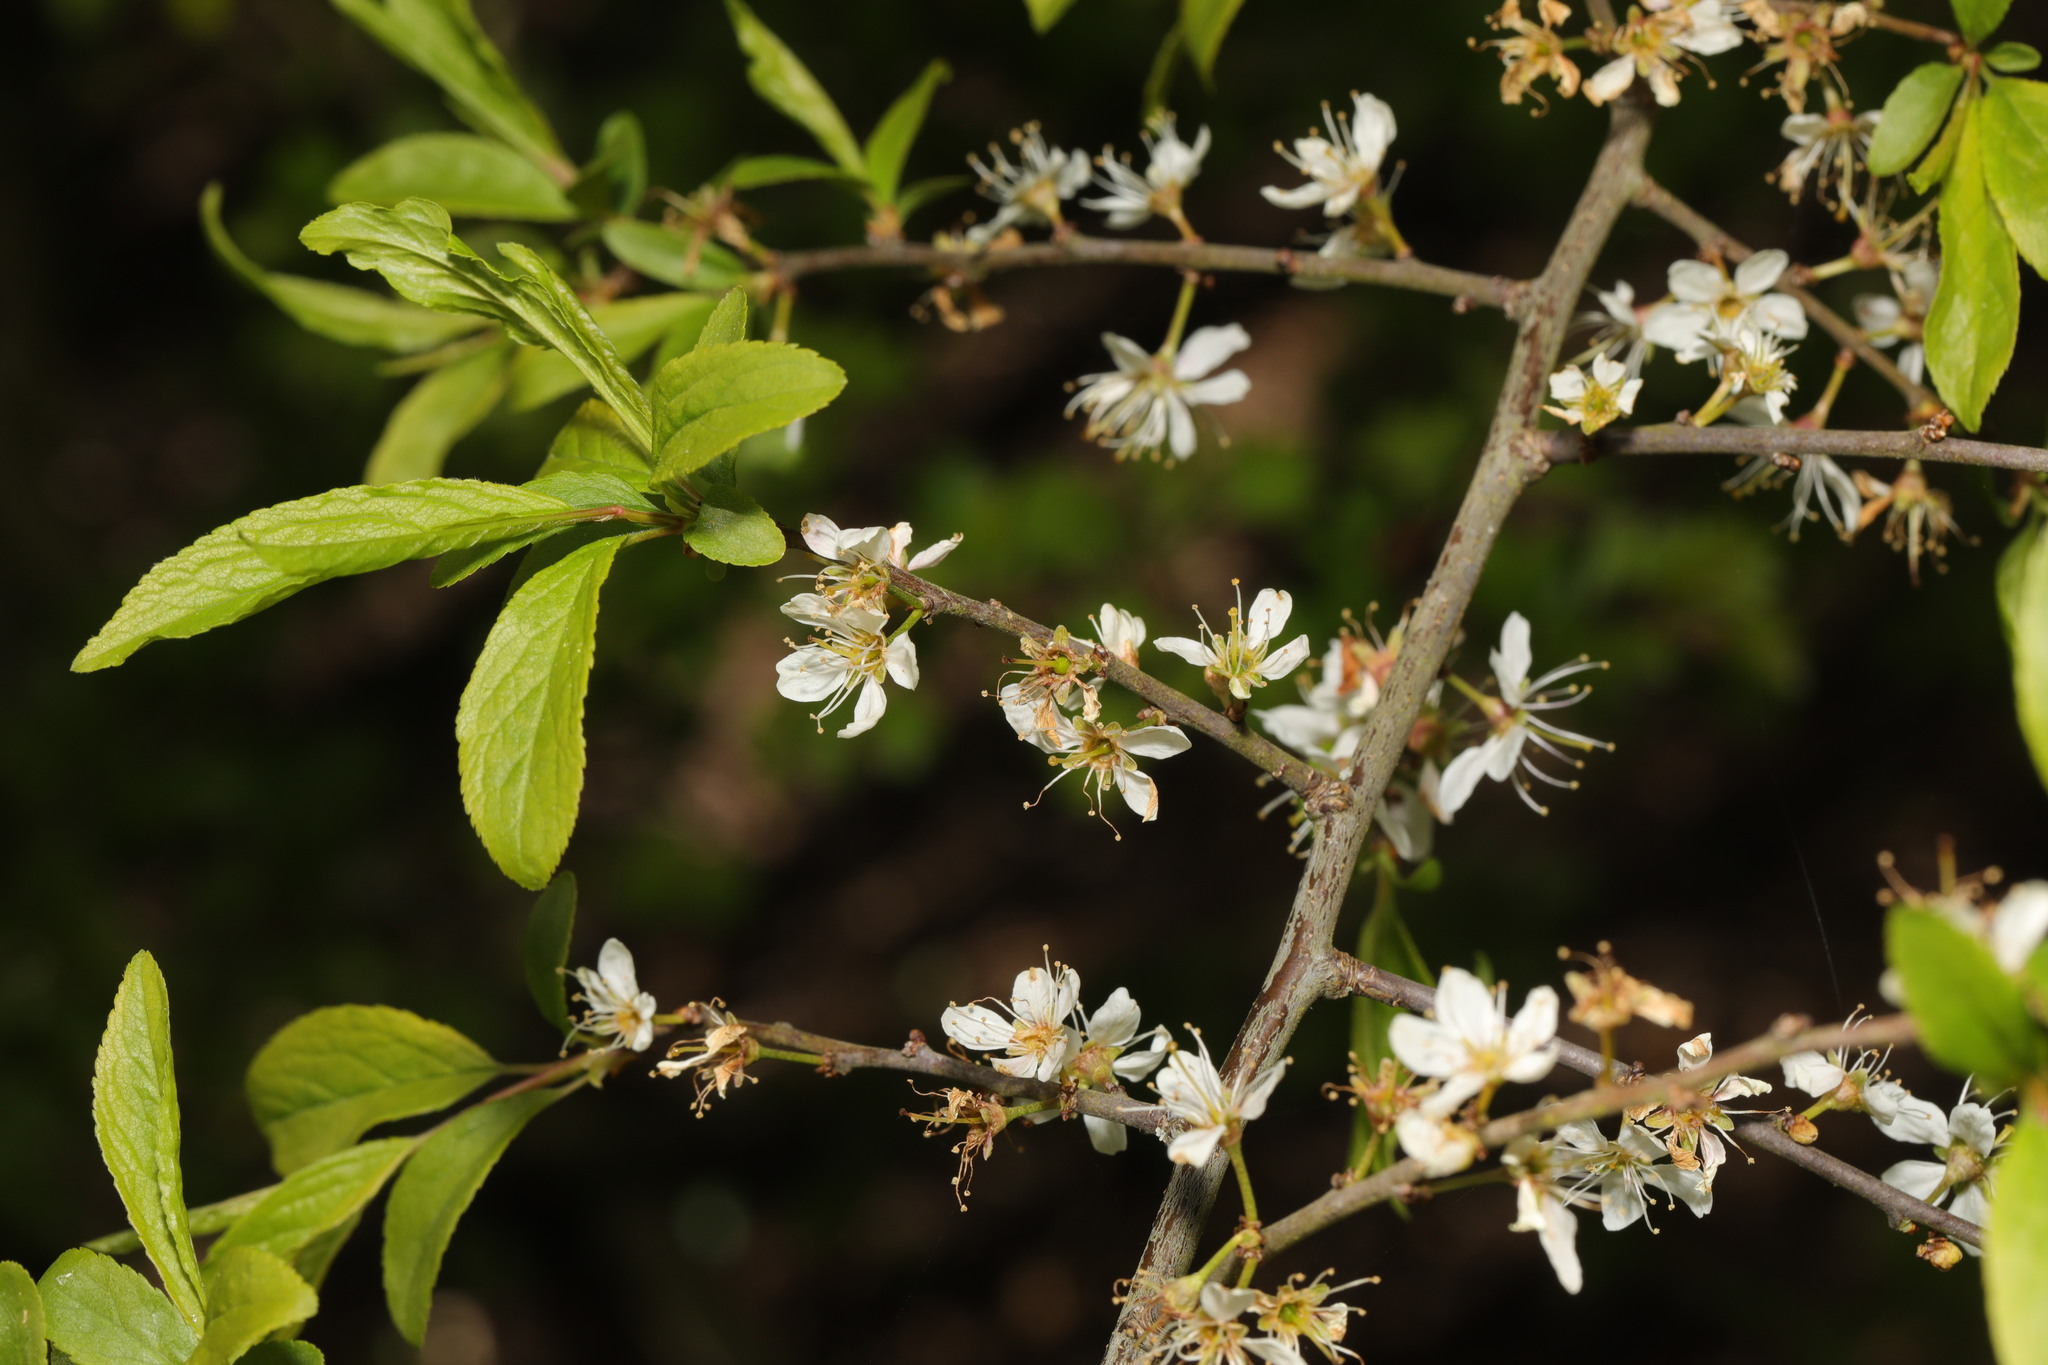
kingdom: Plantae
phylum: Tracheophyta
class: Magnoliopsida
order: Rosales
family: Rosaceae
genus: Prunus
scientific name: Prunus spinosa
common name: Blackthorn
